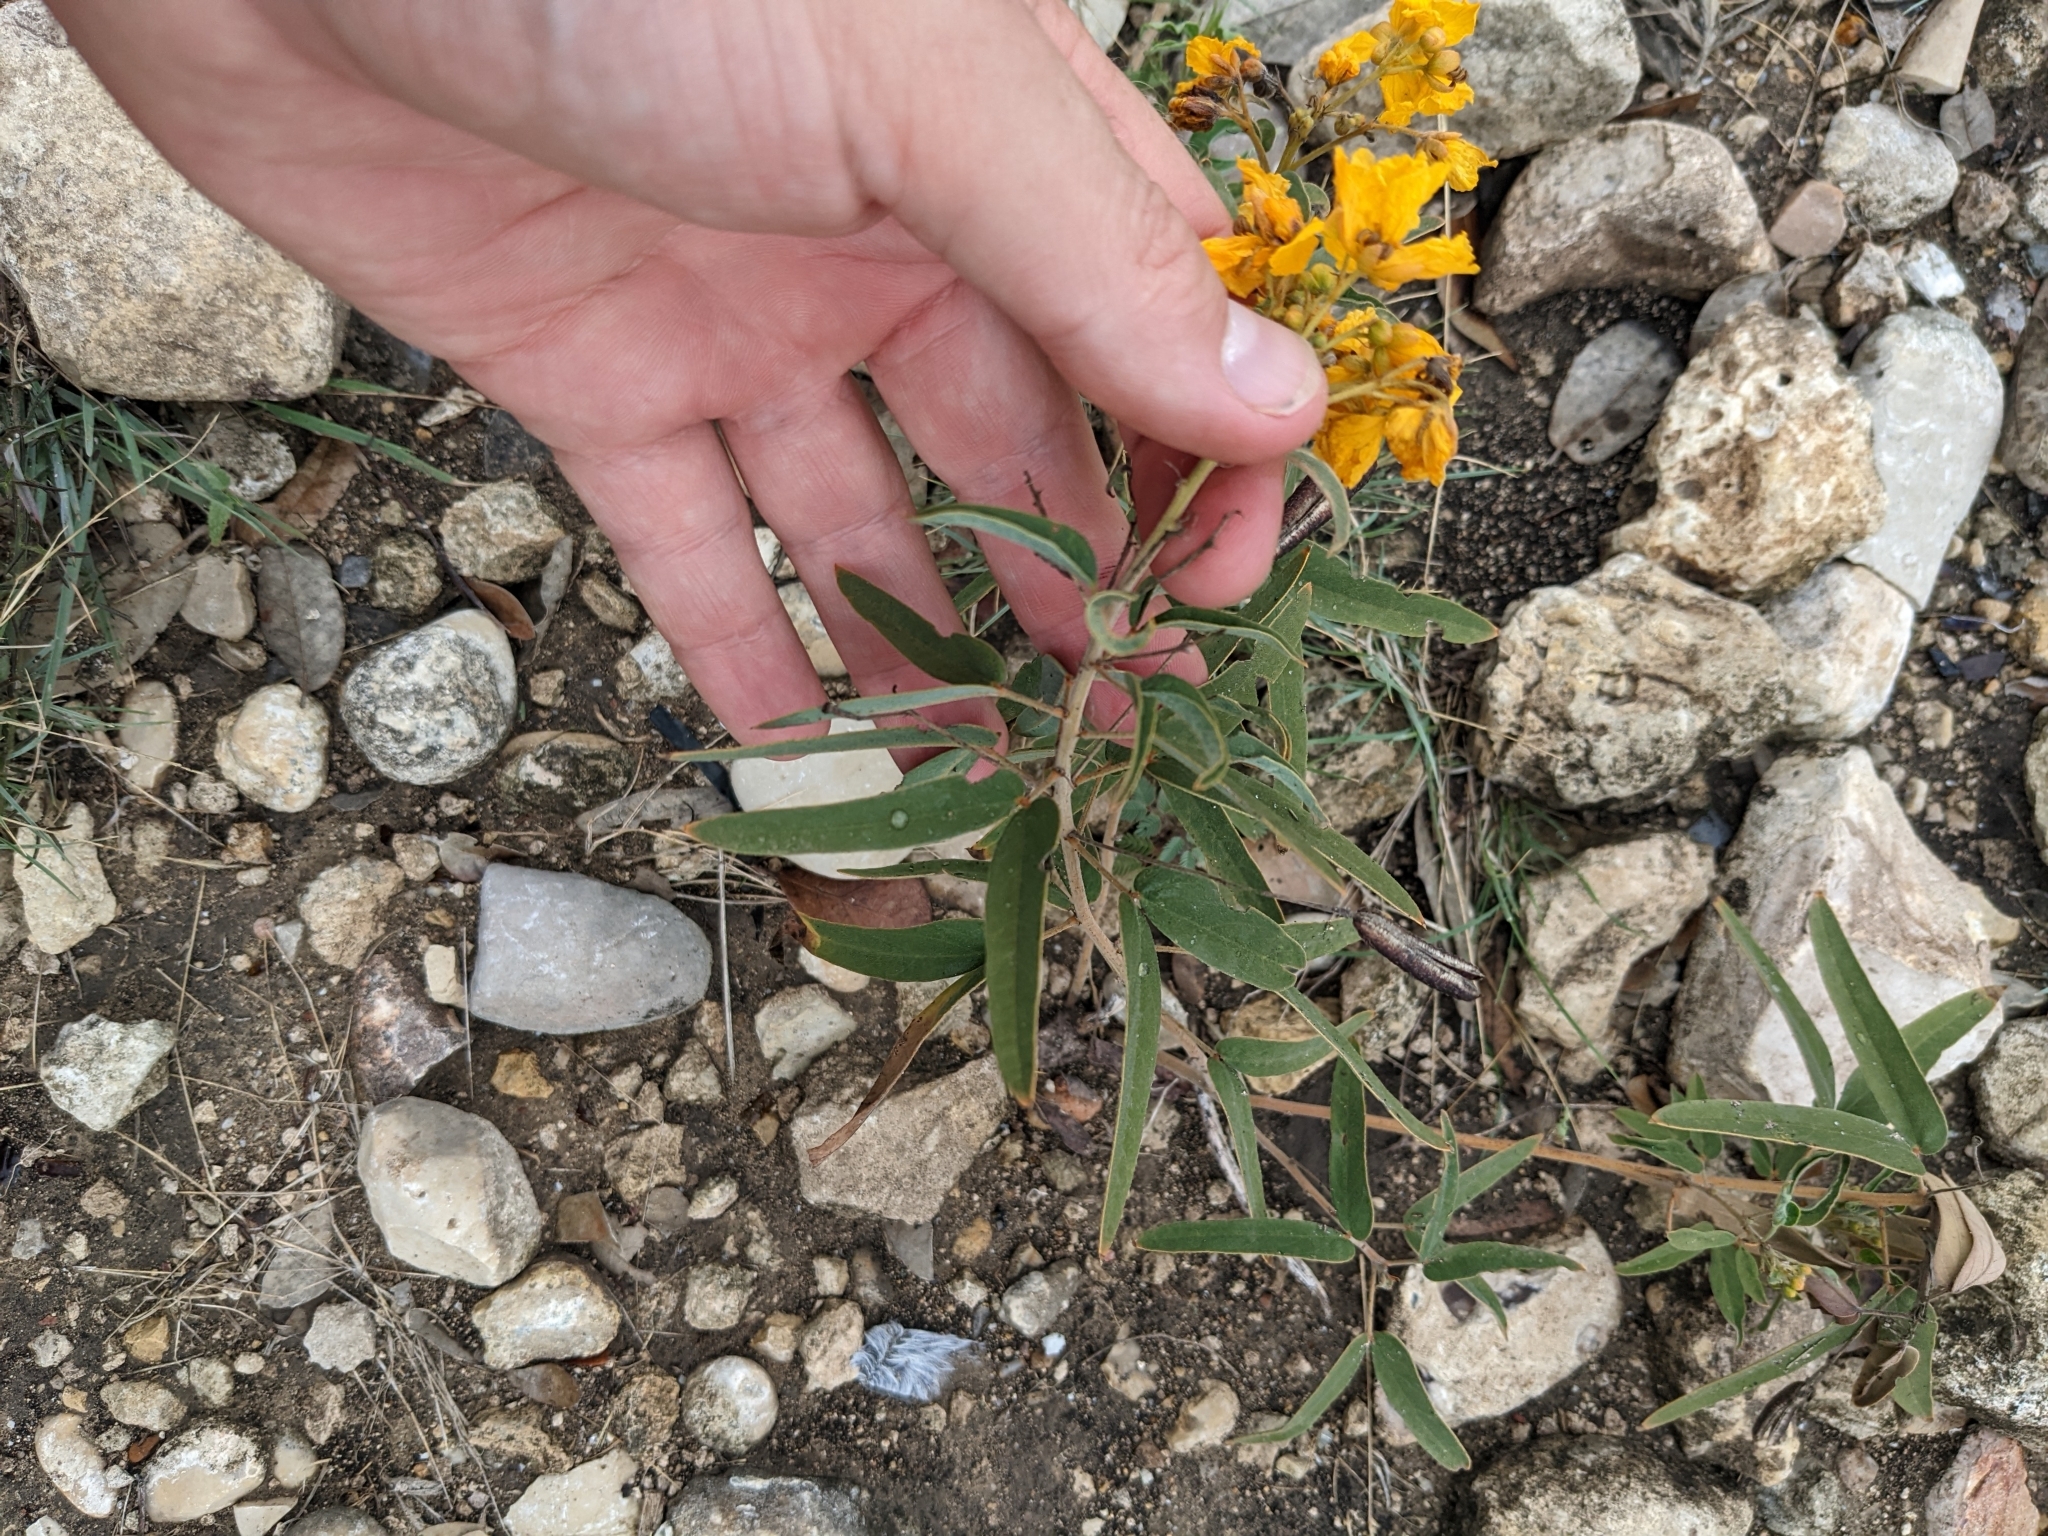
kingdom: Plantae
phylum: Tracheophyta
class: Magnoliopsida
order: Fabales
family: Fabaceae
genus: Senna
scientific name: Senna roemeriana
